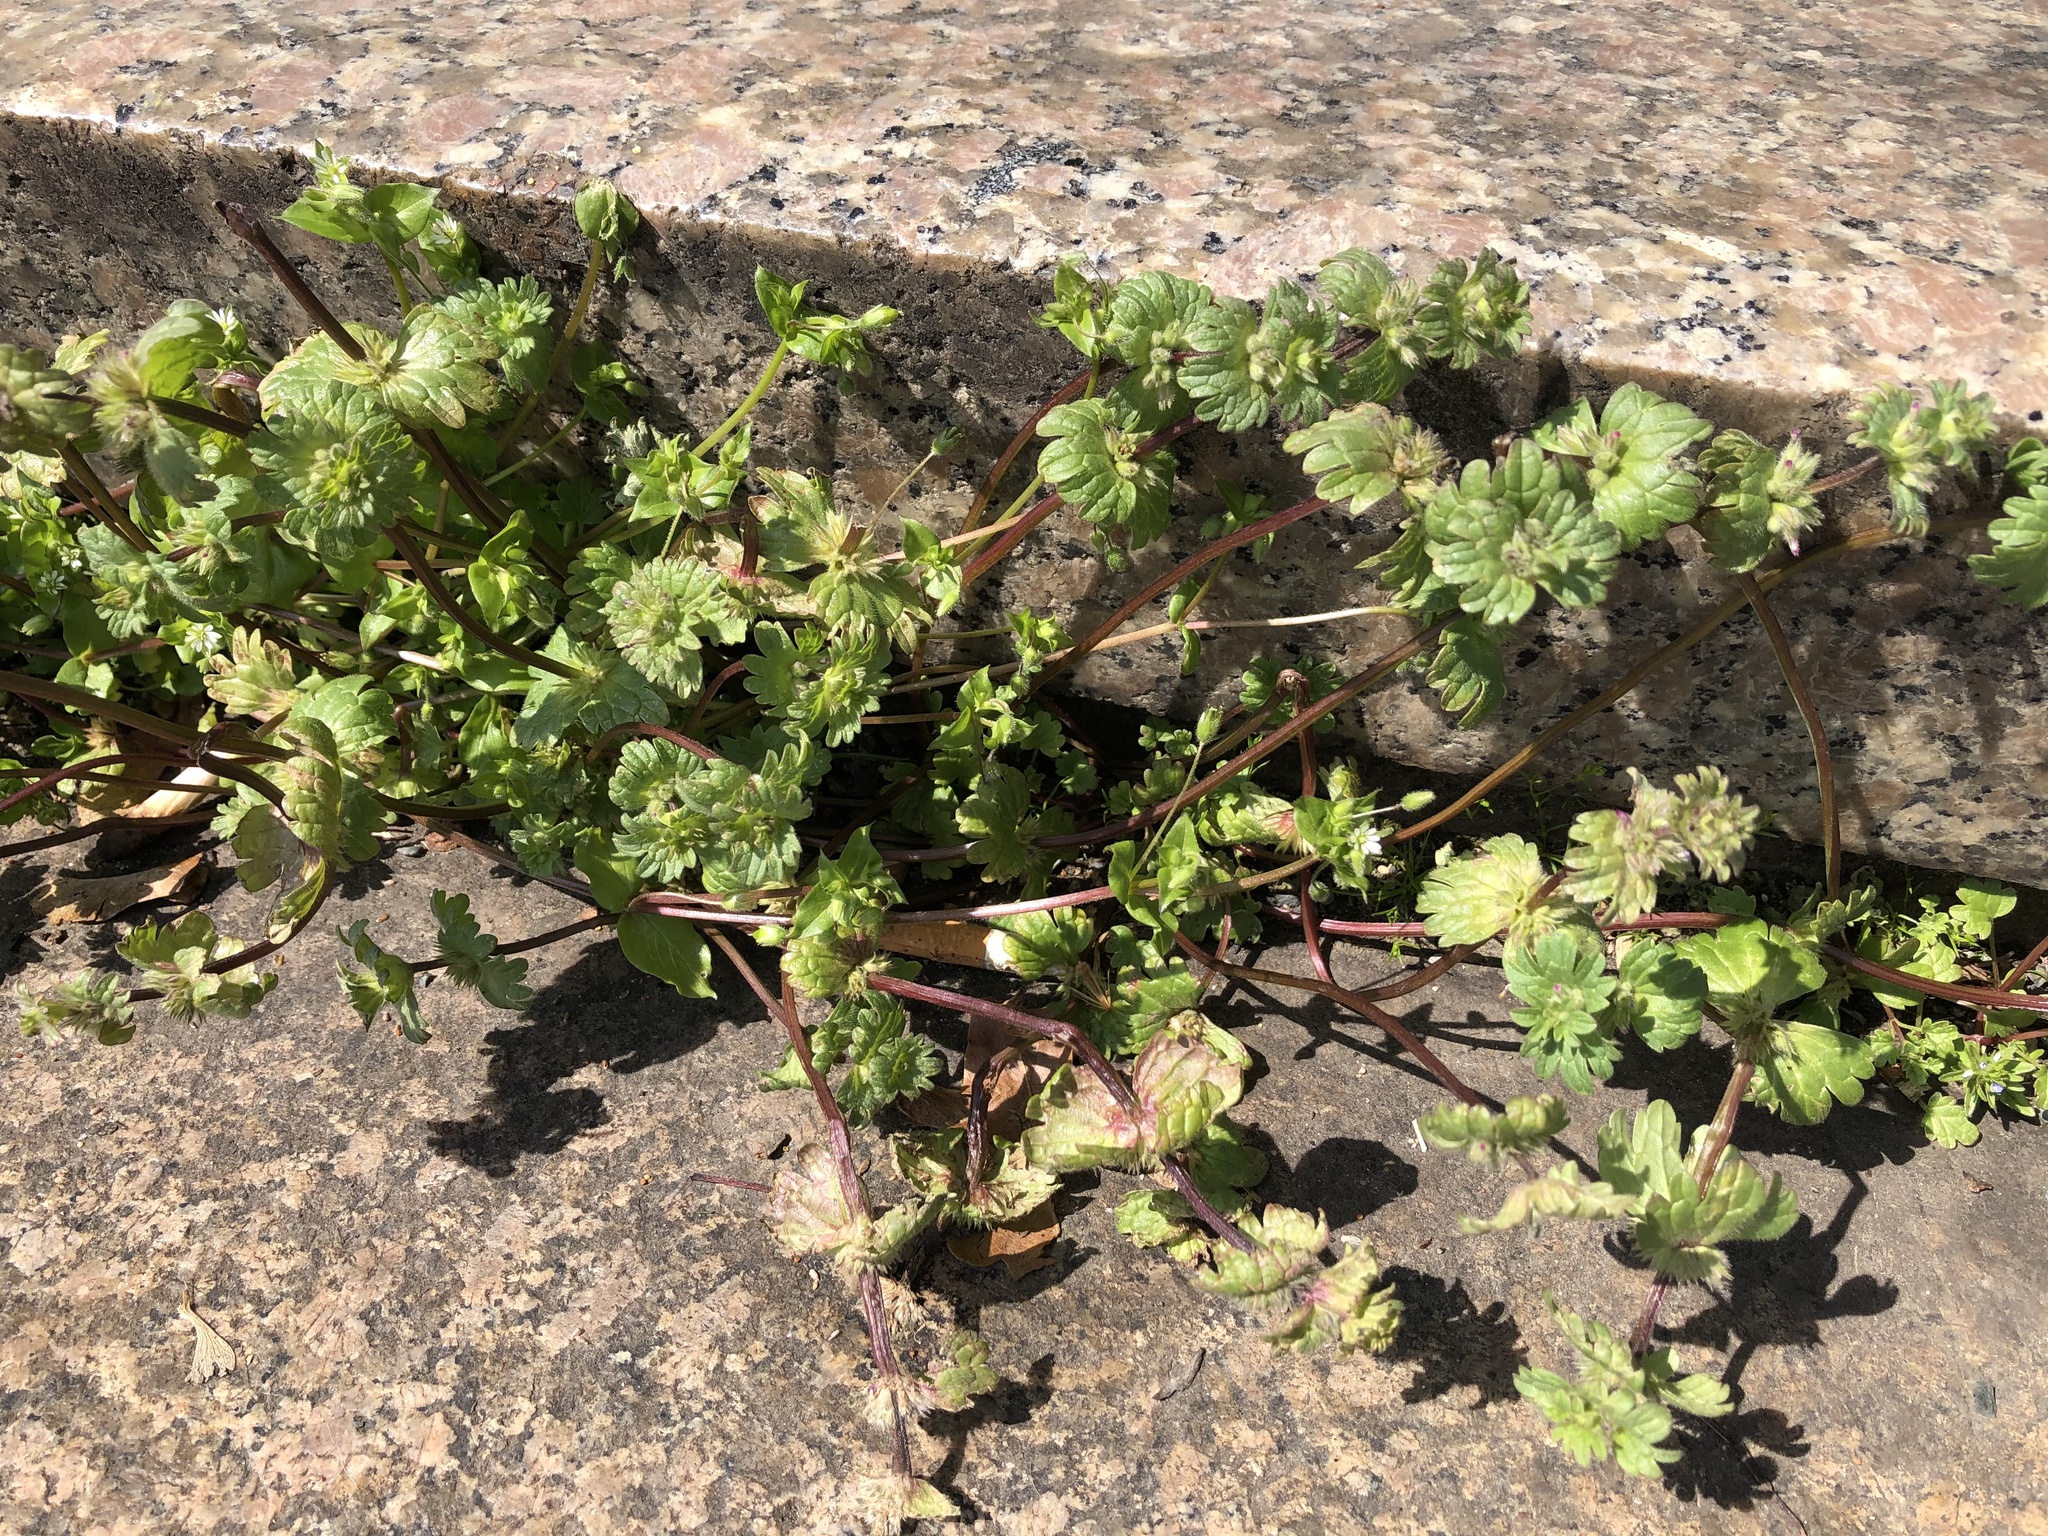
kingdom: Plantae
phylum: Tracheophyta
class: Magnoliopsida
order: Lamiales
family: Lamiaceae
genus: Lamium
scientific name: Lamium amplexicaule
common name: Henbit dead-nettle
